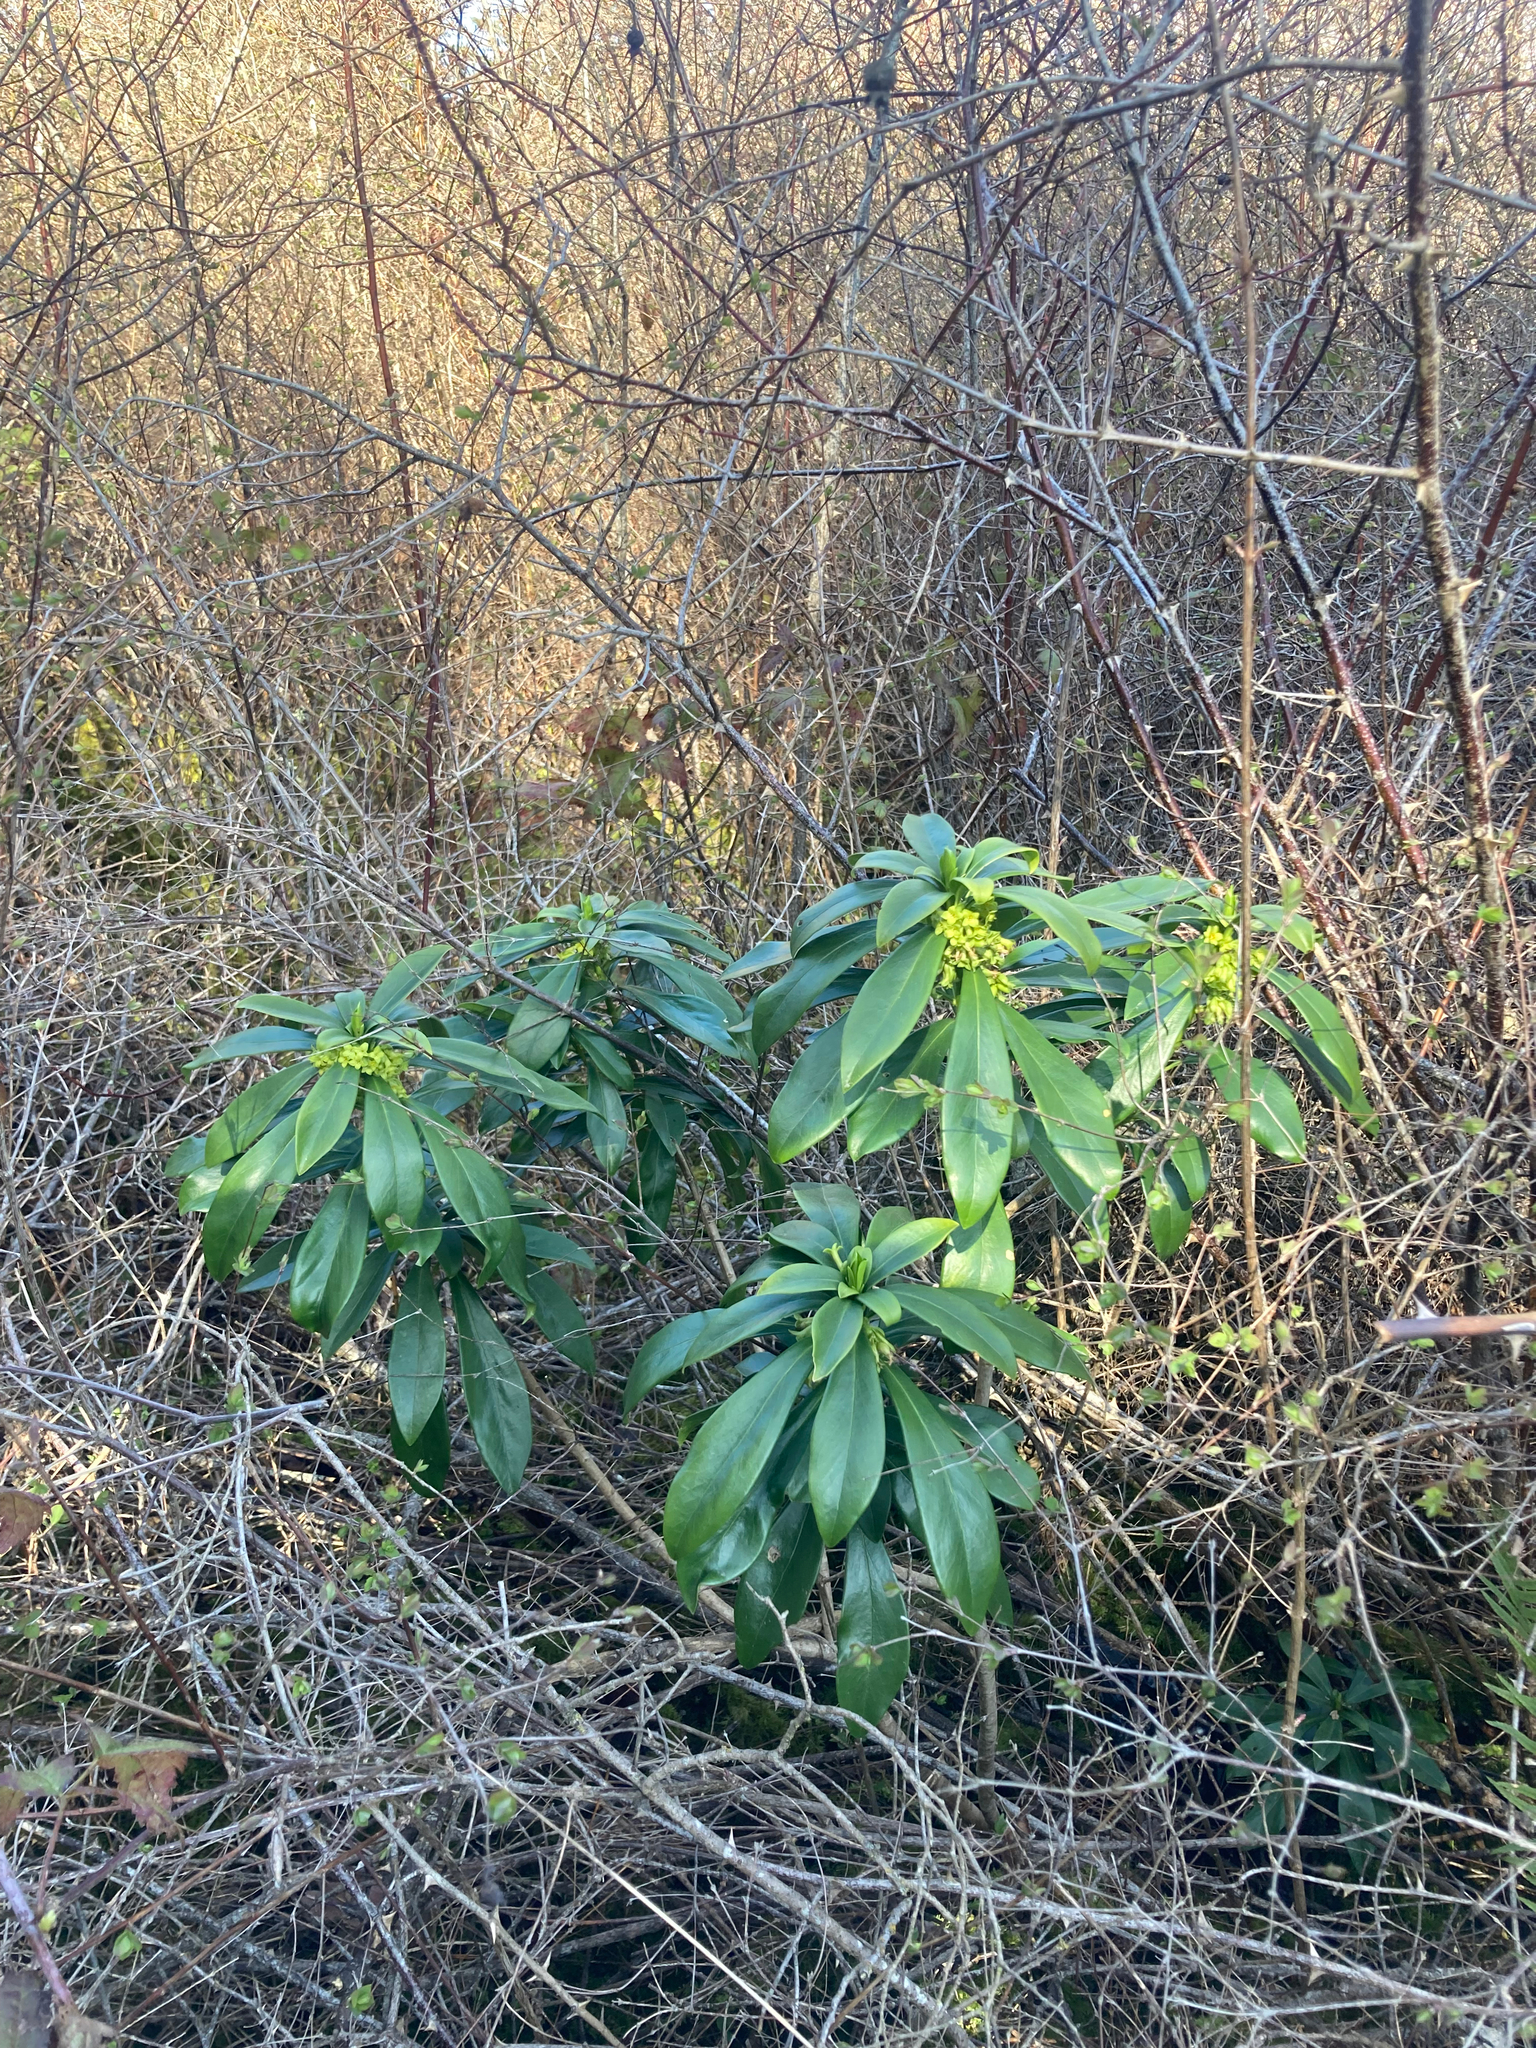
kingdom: Plantae
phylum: Tracheophyta
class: Magnoliopsida
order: Malvales
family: Thymelaeaceae
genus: Daphne
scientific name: Daphne laureola
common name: Spurge-laurel
